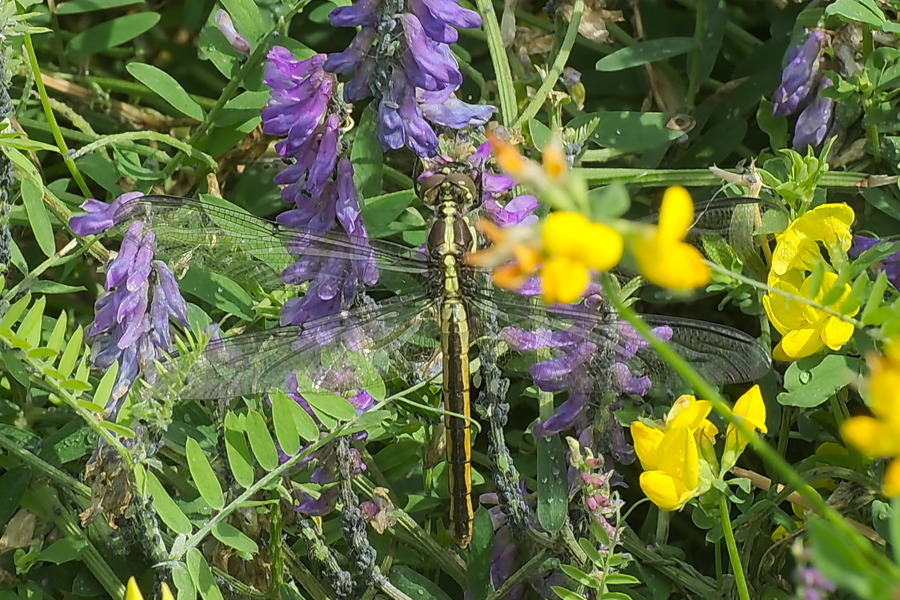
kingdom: Animalia
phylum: Arthropoda
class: Insecta
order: Odonata
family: Libellulidae
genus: Libellula
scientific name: Libellula incesta
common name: Slaty skimmer
